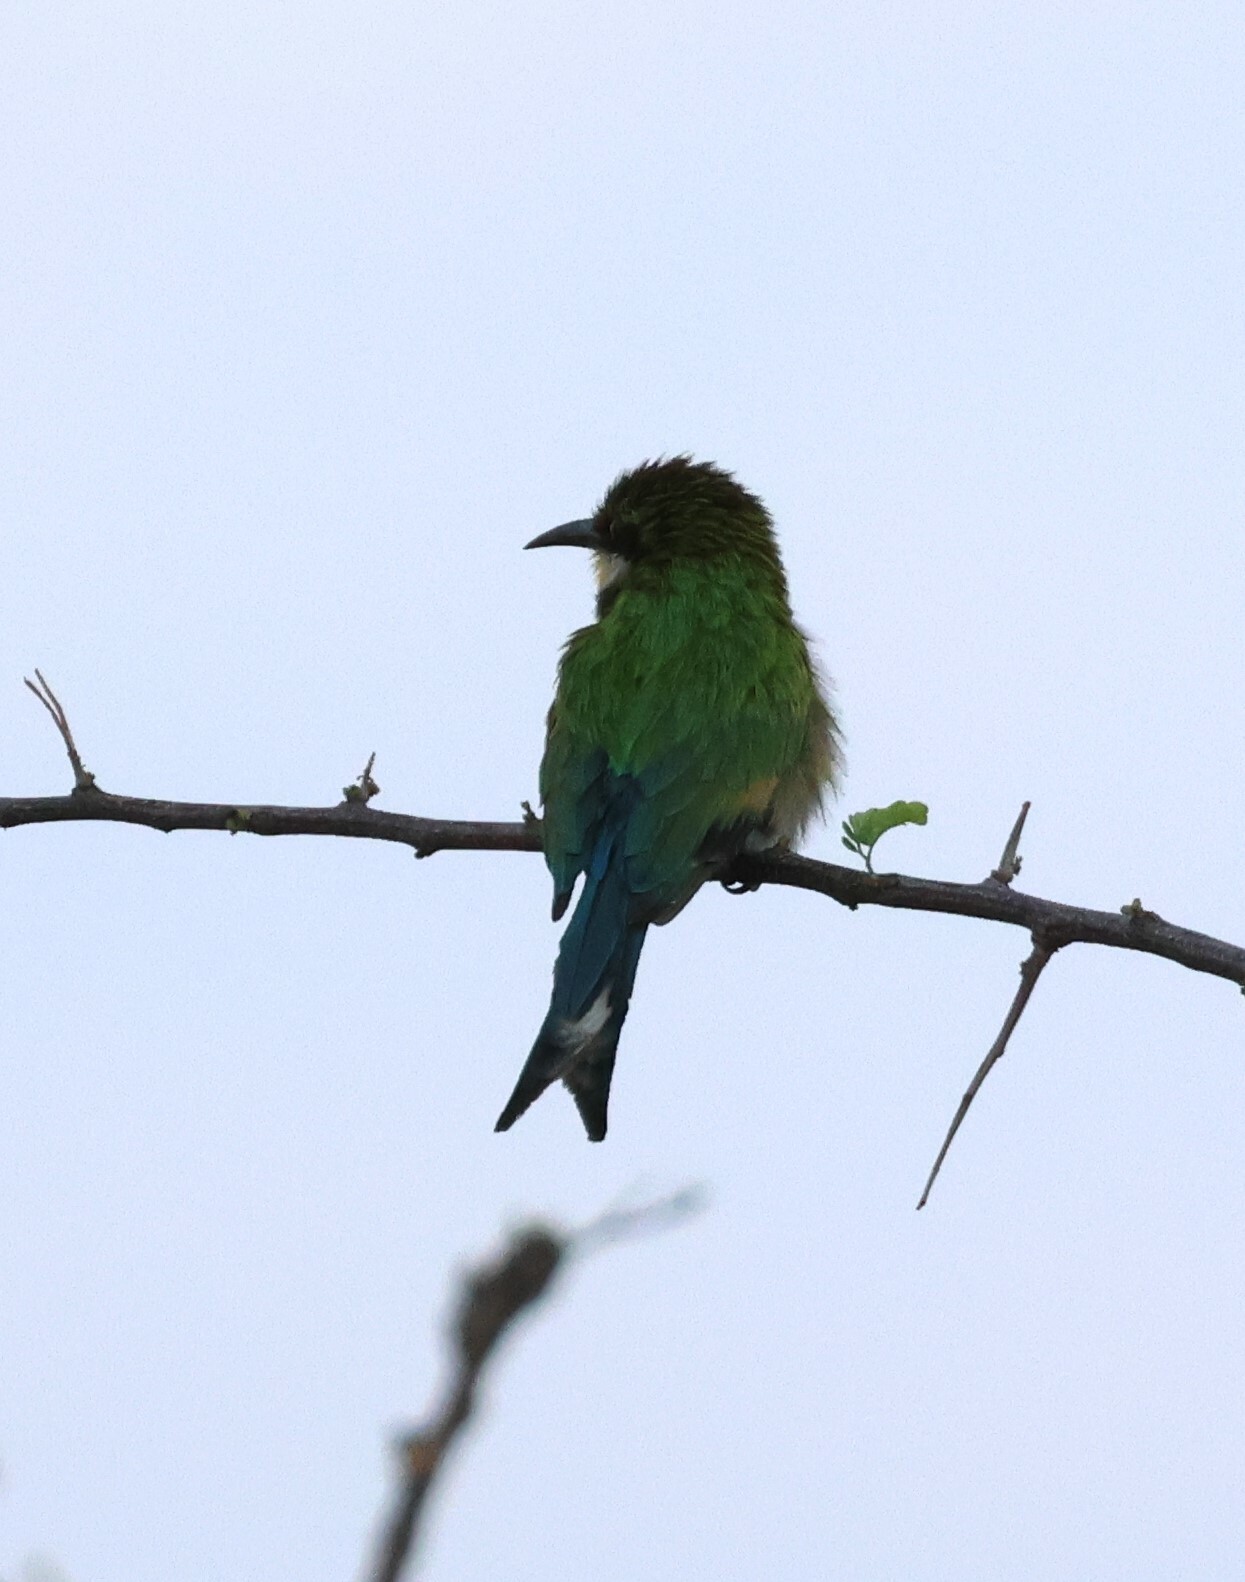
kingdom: Animalia
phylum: Chordata
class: Aves
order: Coraciiformes
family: Meropidae
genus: Merops
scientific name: Merops hirundineus
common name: Swallow-tailed bee-eater
